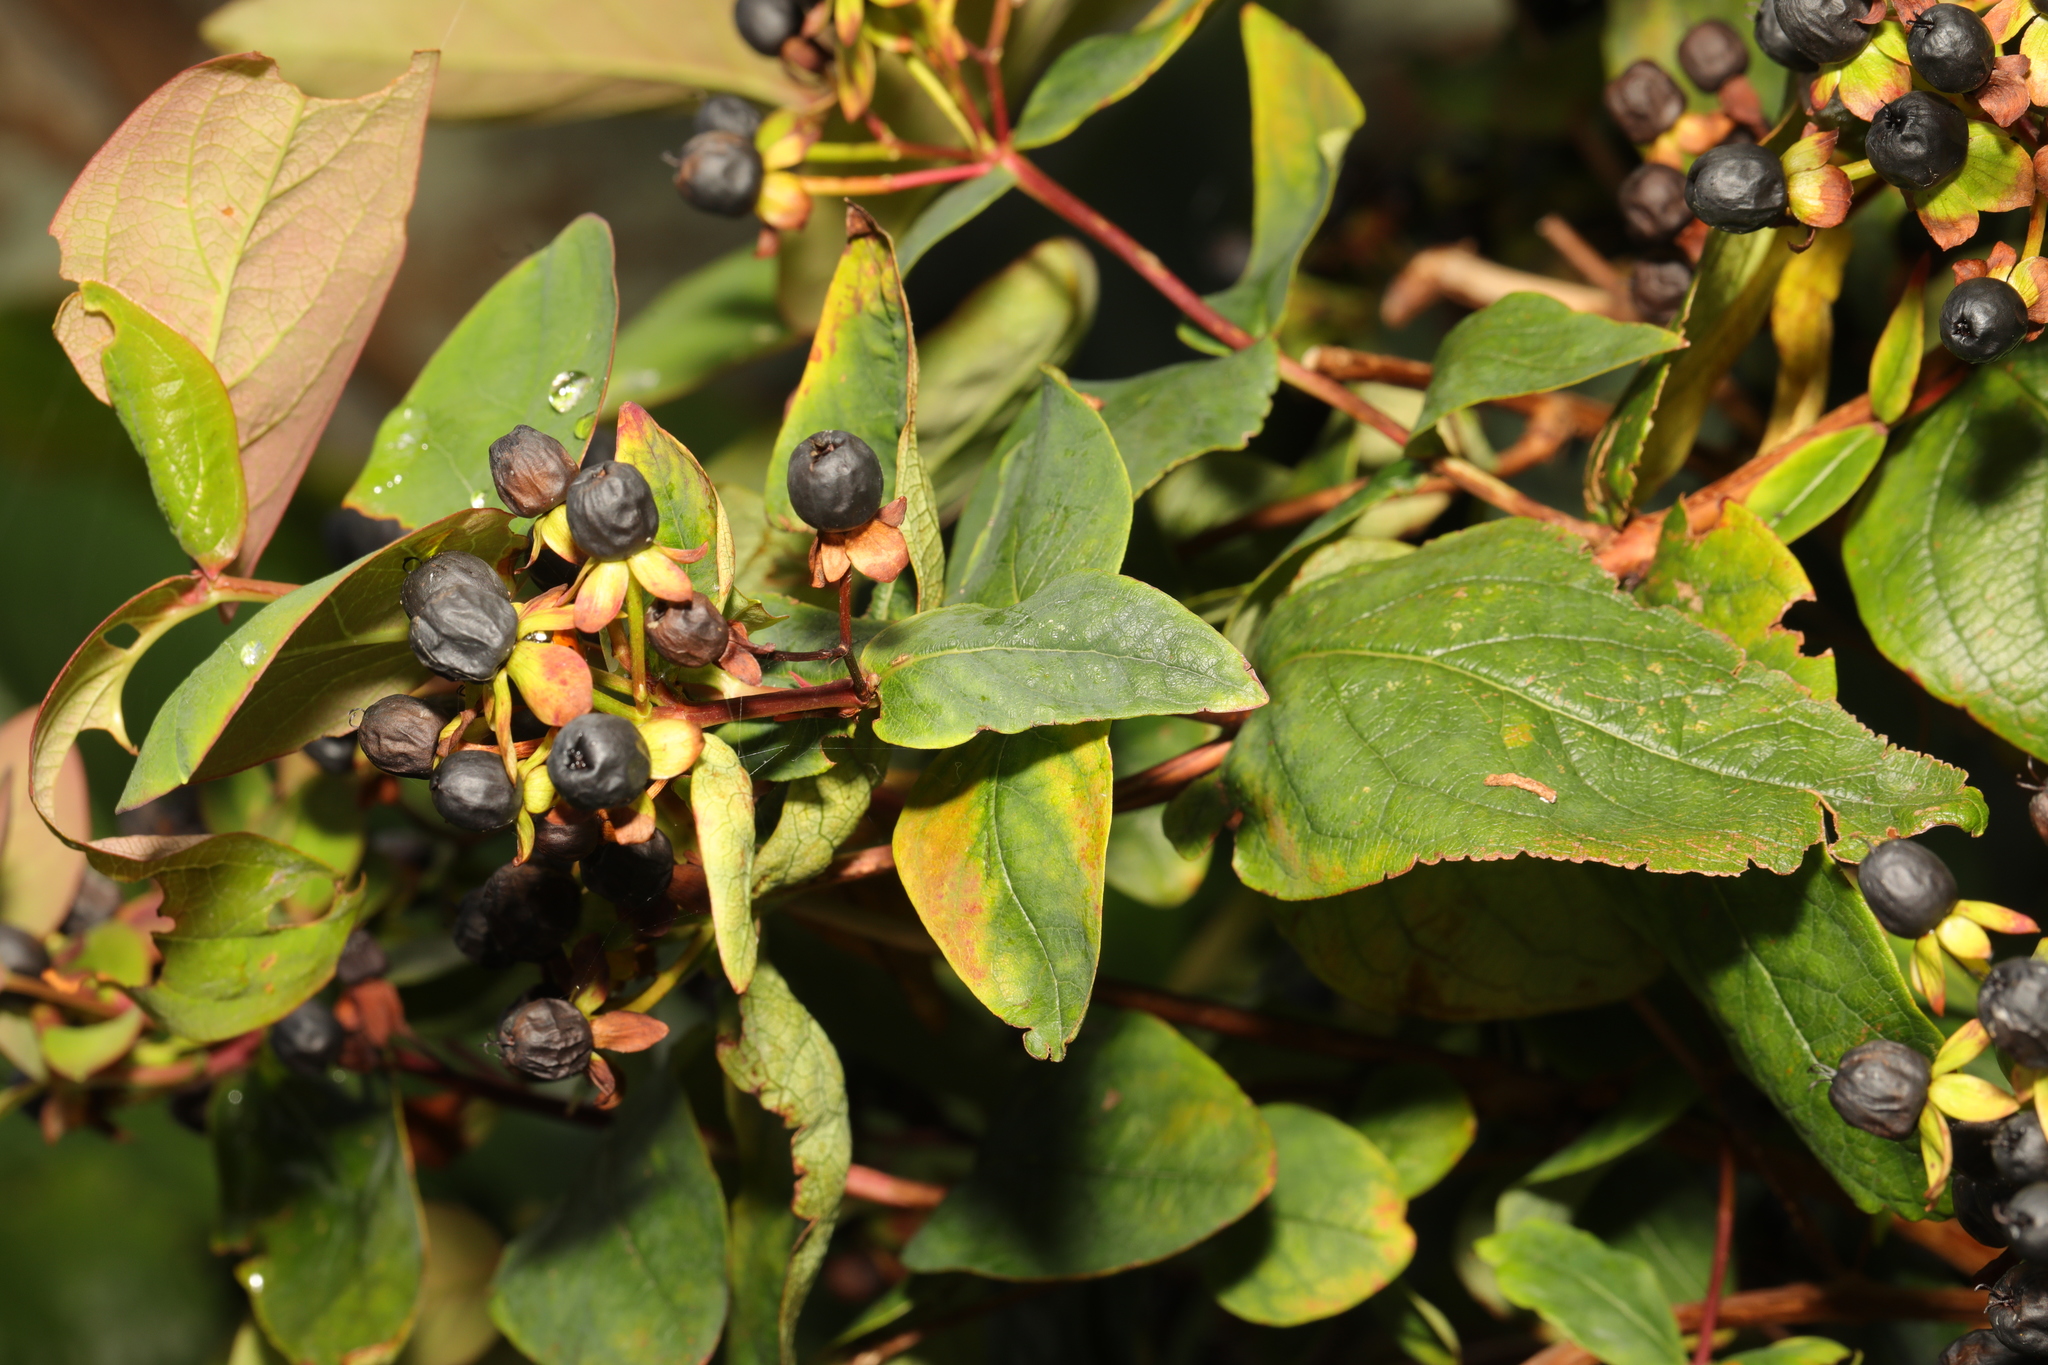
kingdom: Plantae
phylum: Tracheophyta
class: Magnoliopsida
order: Malpighiales
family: Hypericaceae
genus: Hypericum
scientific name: Hypericum androsaemum
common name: Sweet-amber
